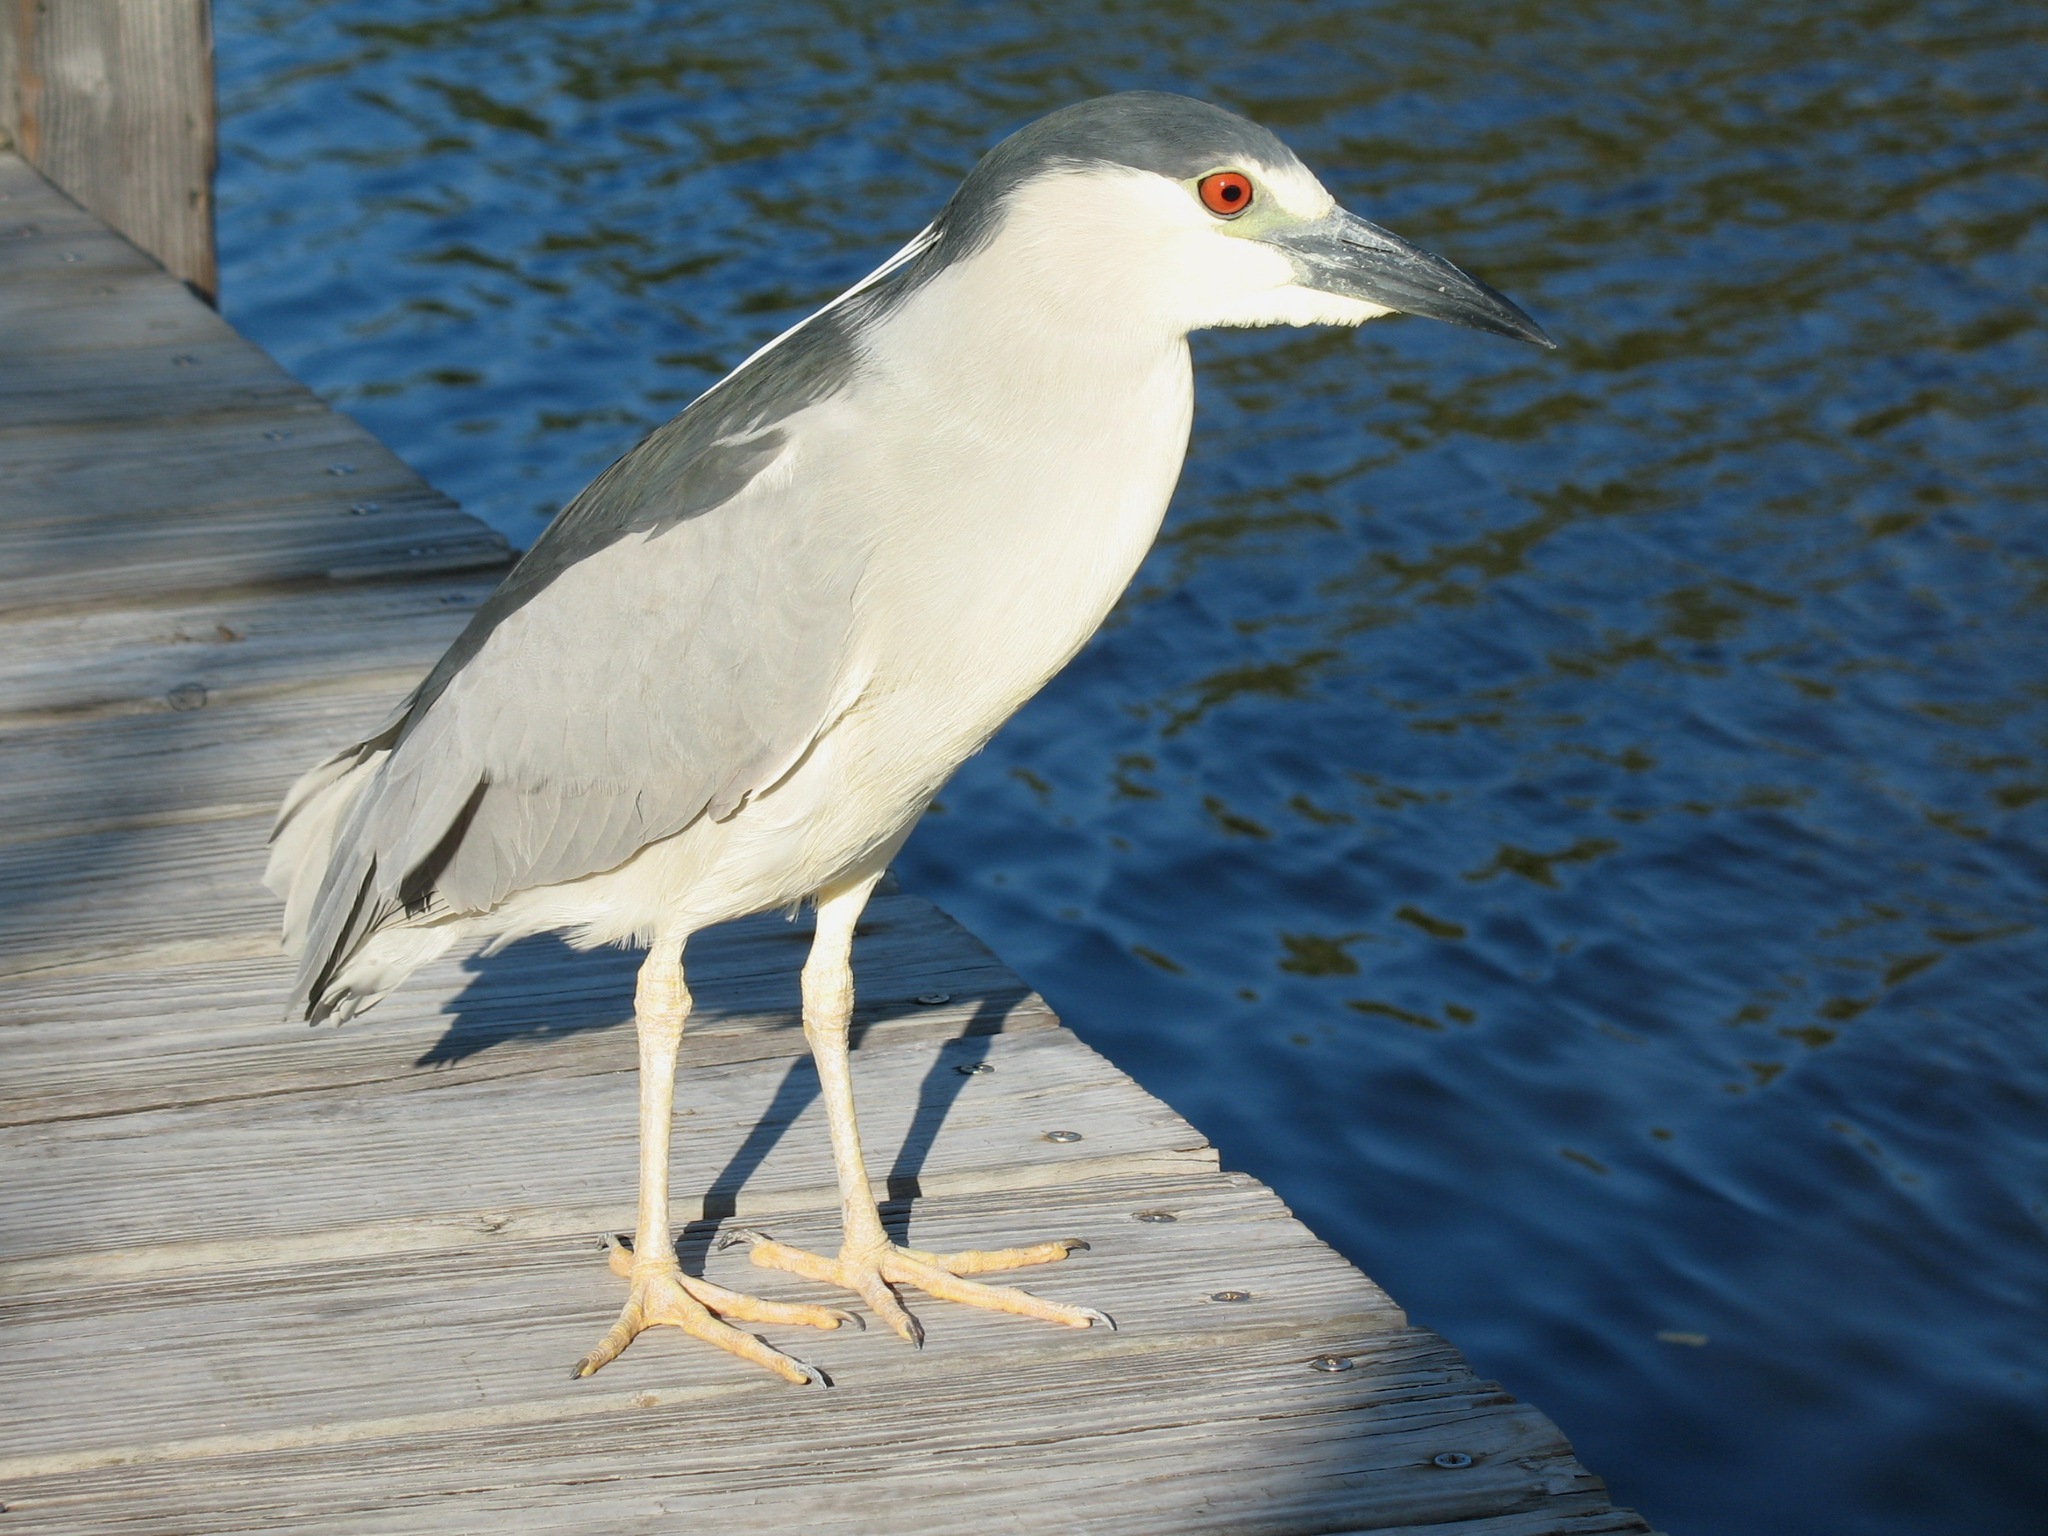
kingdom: Animalia
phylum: Chordata
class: Aves
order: Pelecaniformes
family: Ardeidae
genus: Nycticorax
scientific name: Nycticorax nycticorax
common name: Black-crowned night heron
